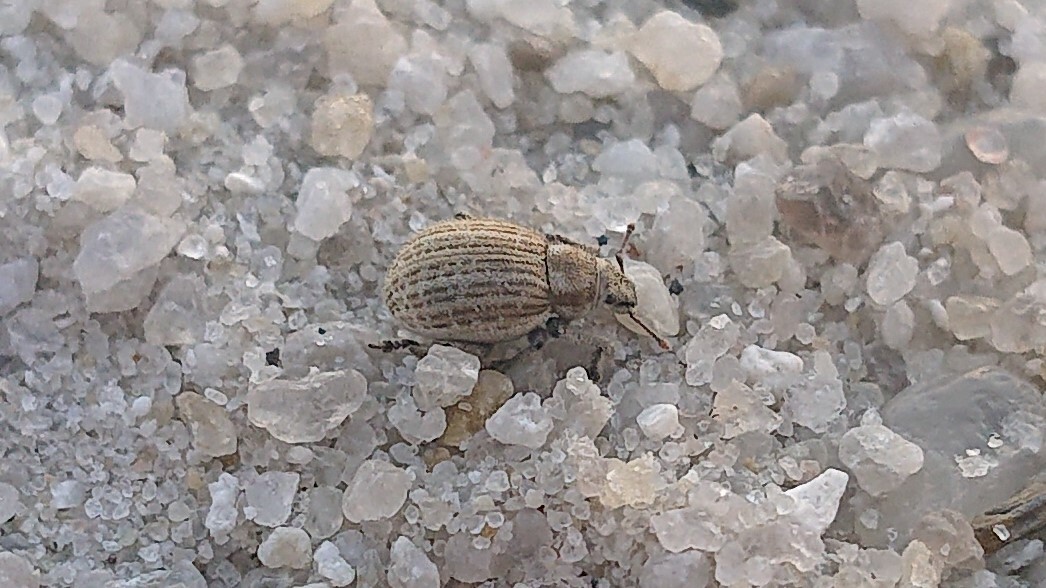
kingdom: Animalia
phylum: Arthropoda
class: Insecta
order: Coleoptera
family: Curculionidae
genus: Philopedon
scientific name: Philopedon plagiatum
